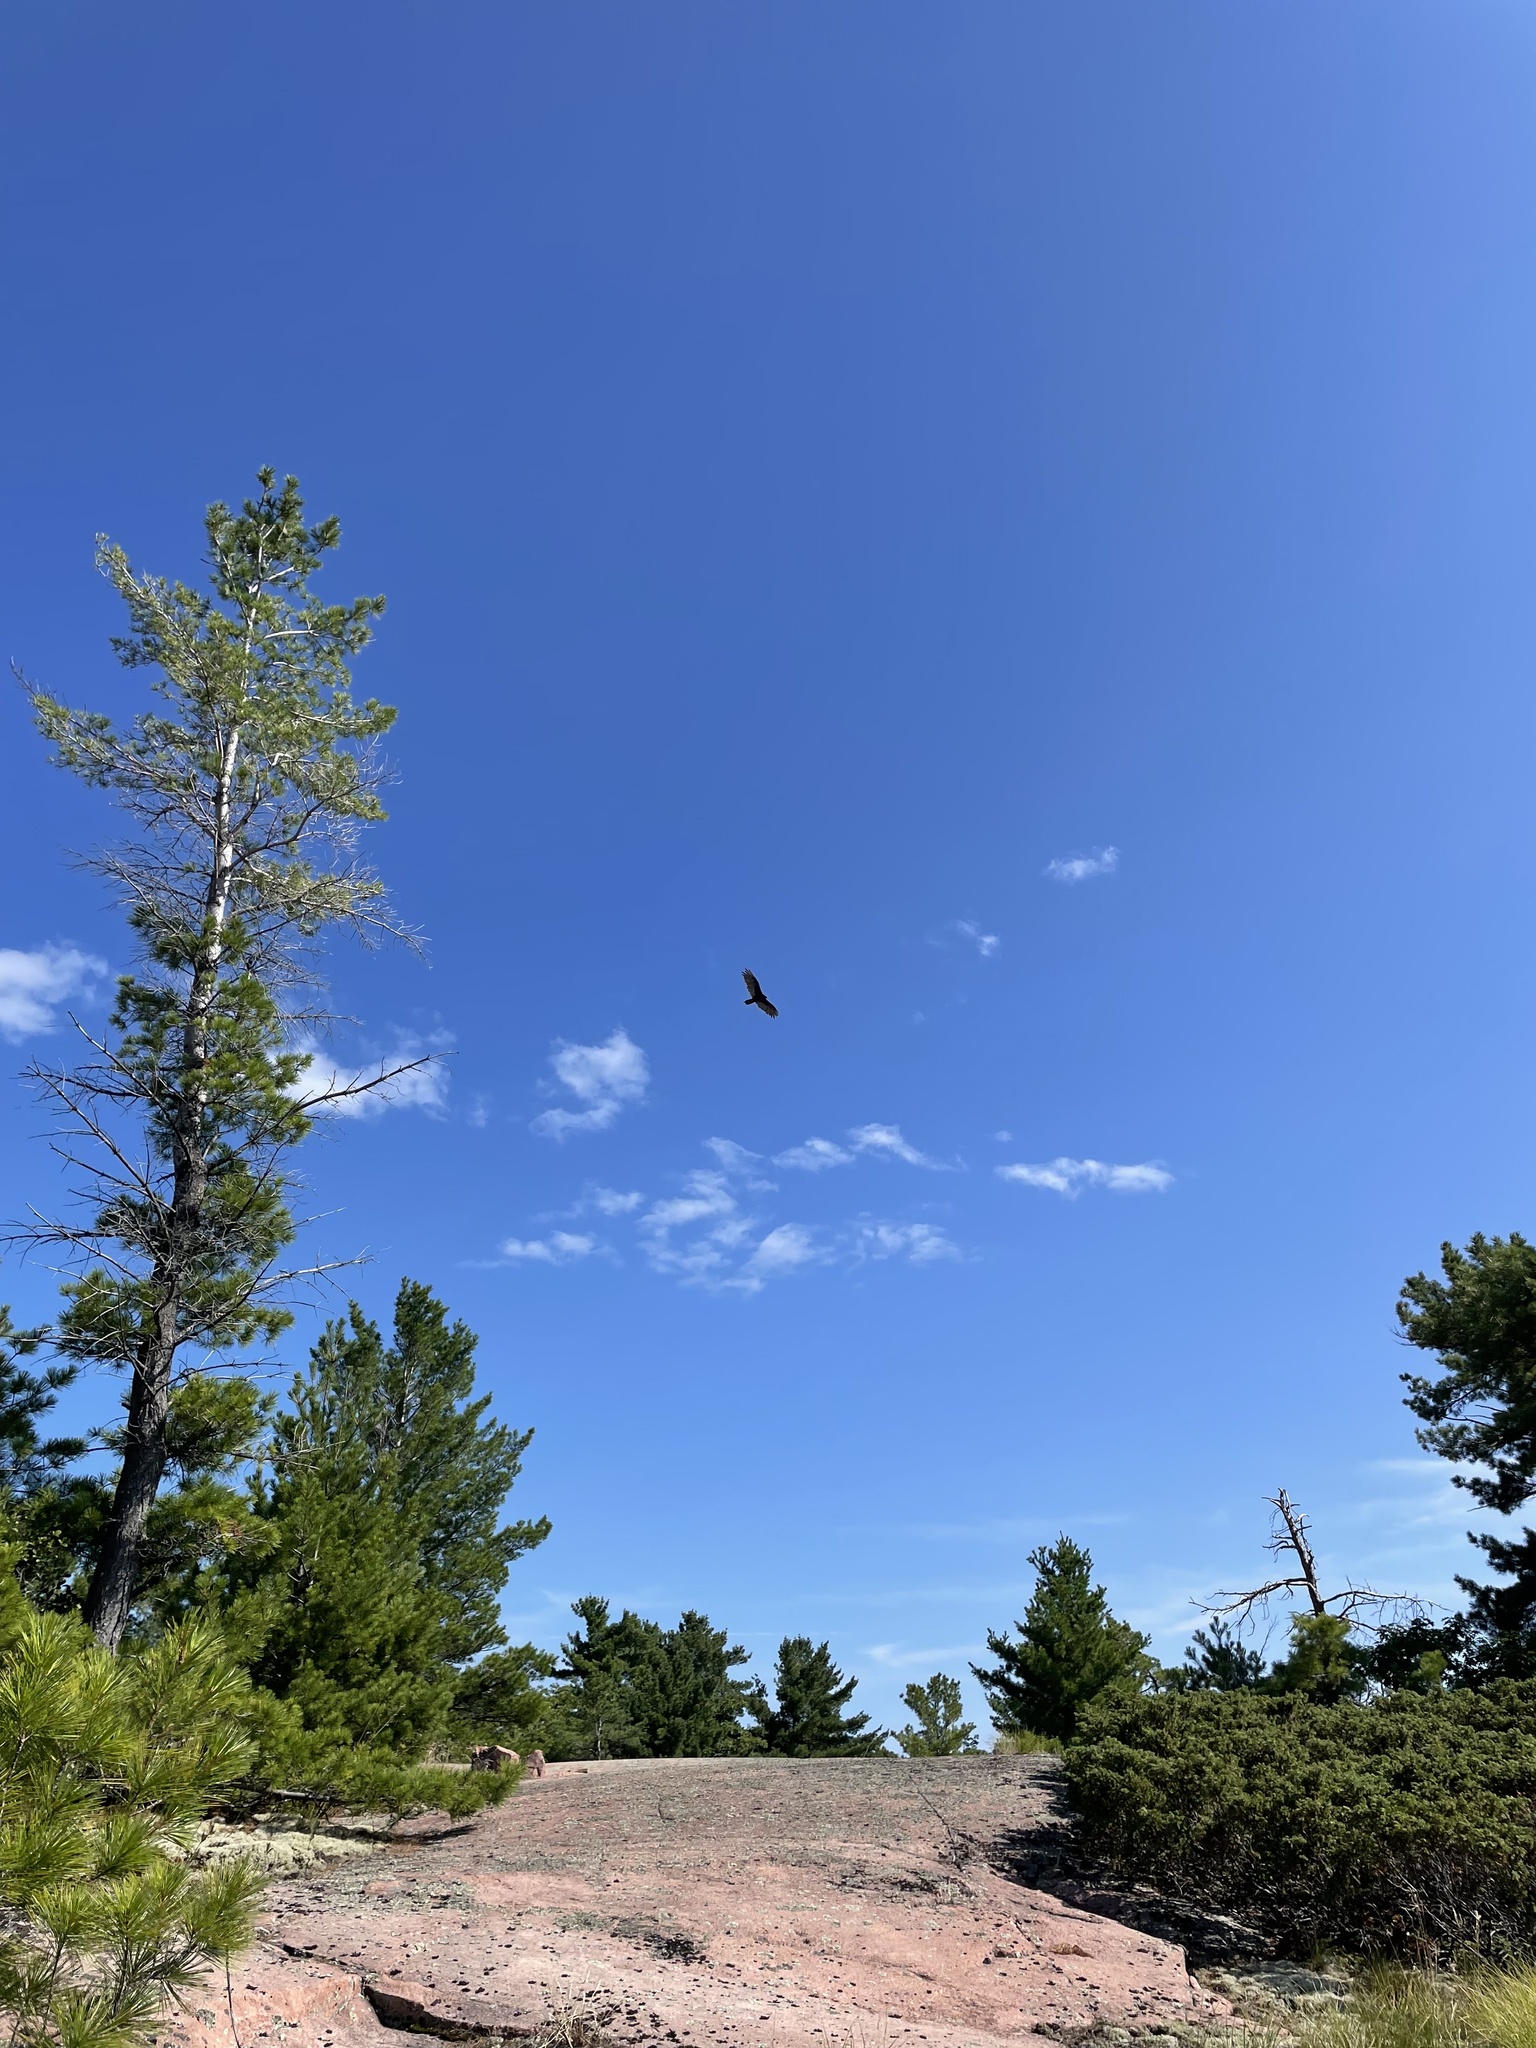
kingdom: Animalia
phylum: Chordata
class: Aves
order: Accipitriformes
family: Cathartidae
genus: Cathartes
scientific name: Cathartes aura
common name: Turkey vulture
